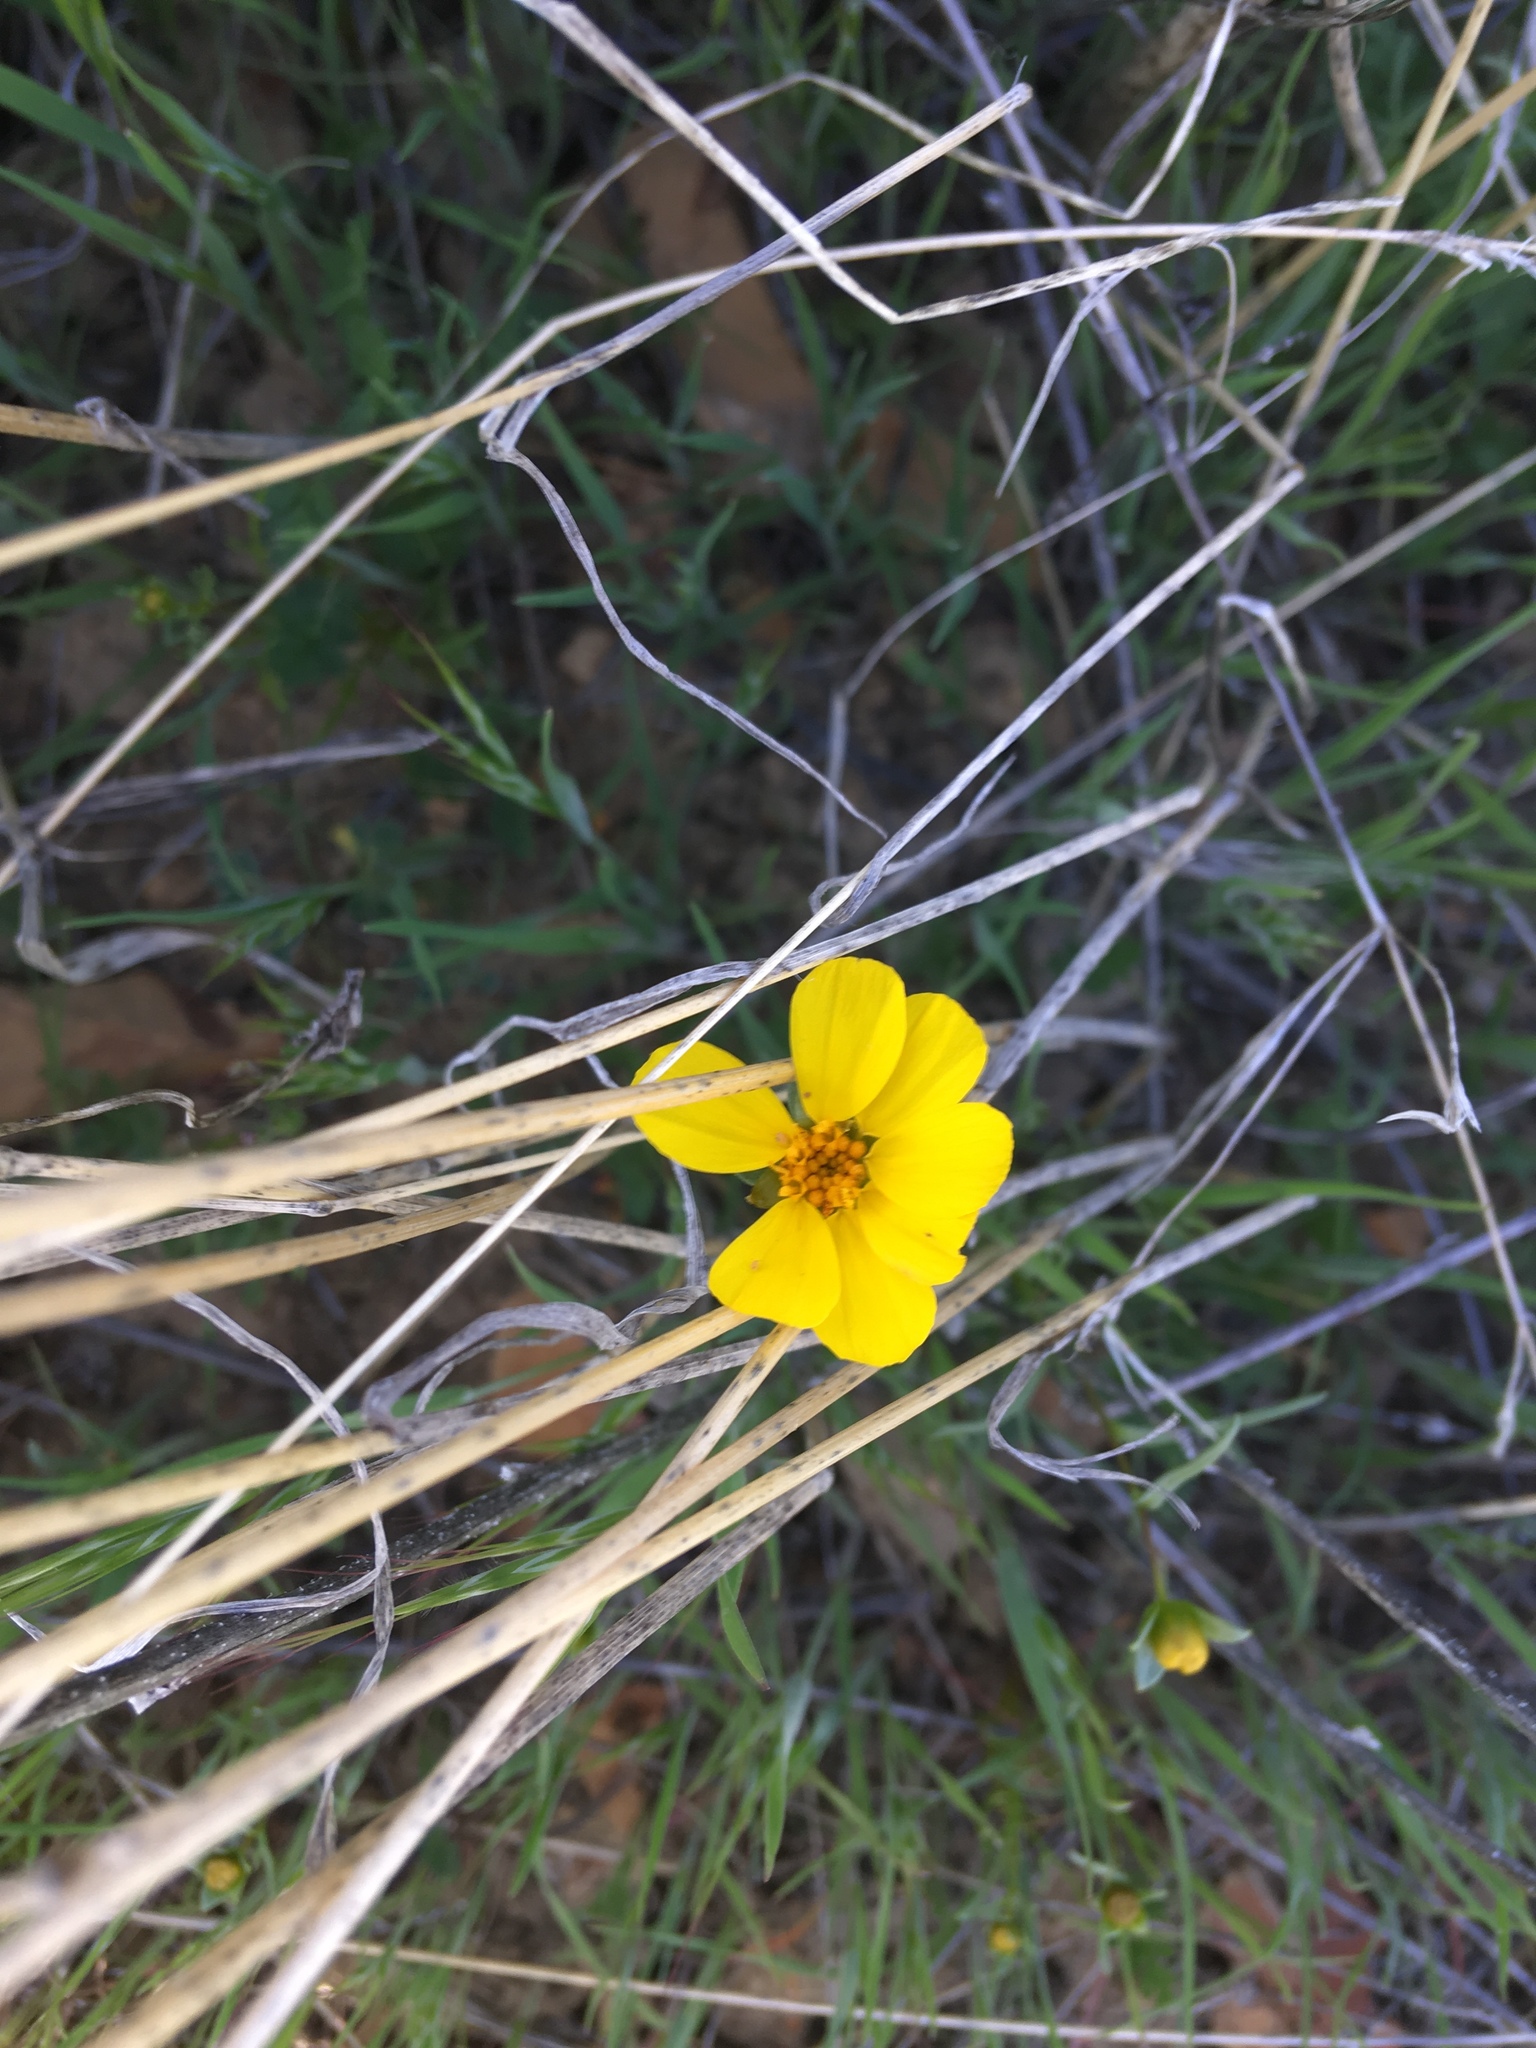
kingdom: Plantae
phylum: Tracheophyta
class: Magnoliopsida
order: Asterales
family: Asteraceae
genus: Coreopsis
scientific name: Coreopsis calliopsidea
